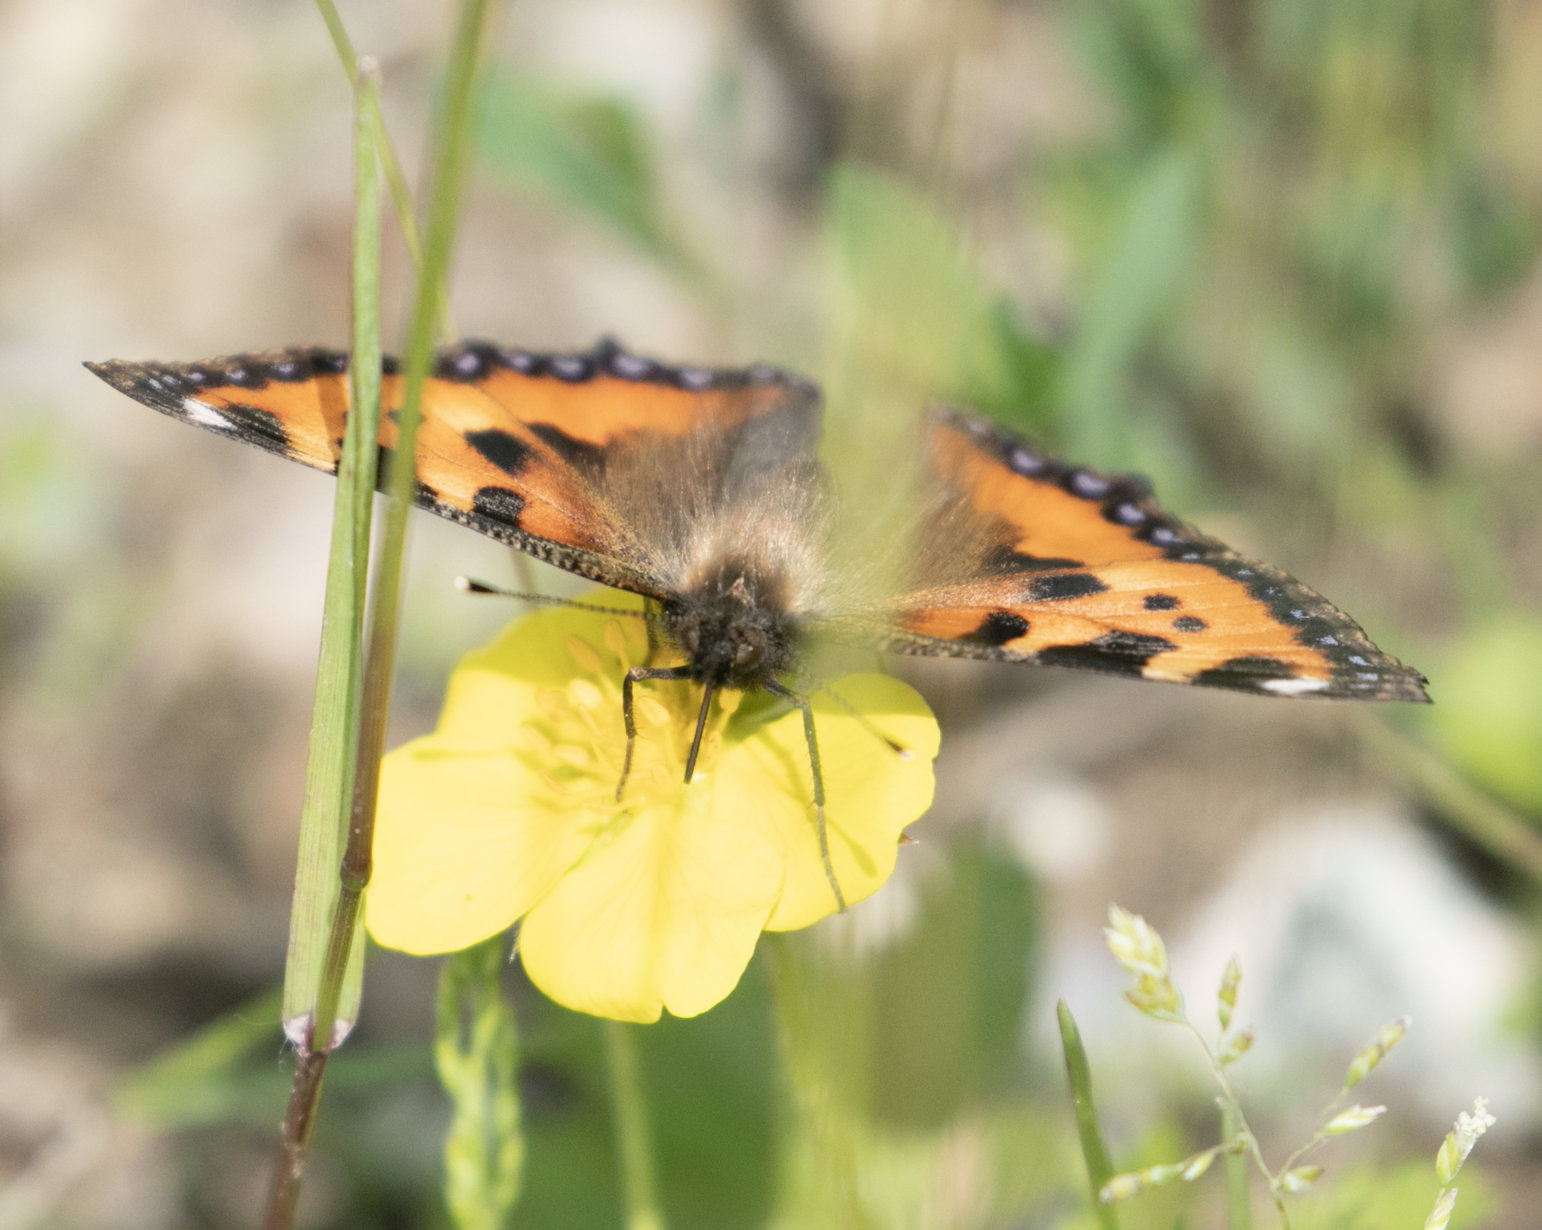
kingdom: Animalia
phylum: Arthropoda
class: Insecta
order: Lepidoptera
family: Nymphalidae
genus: Aglais
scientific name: Aglais urticae
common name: Small tortoiseshell
